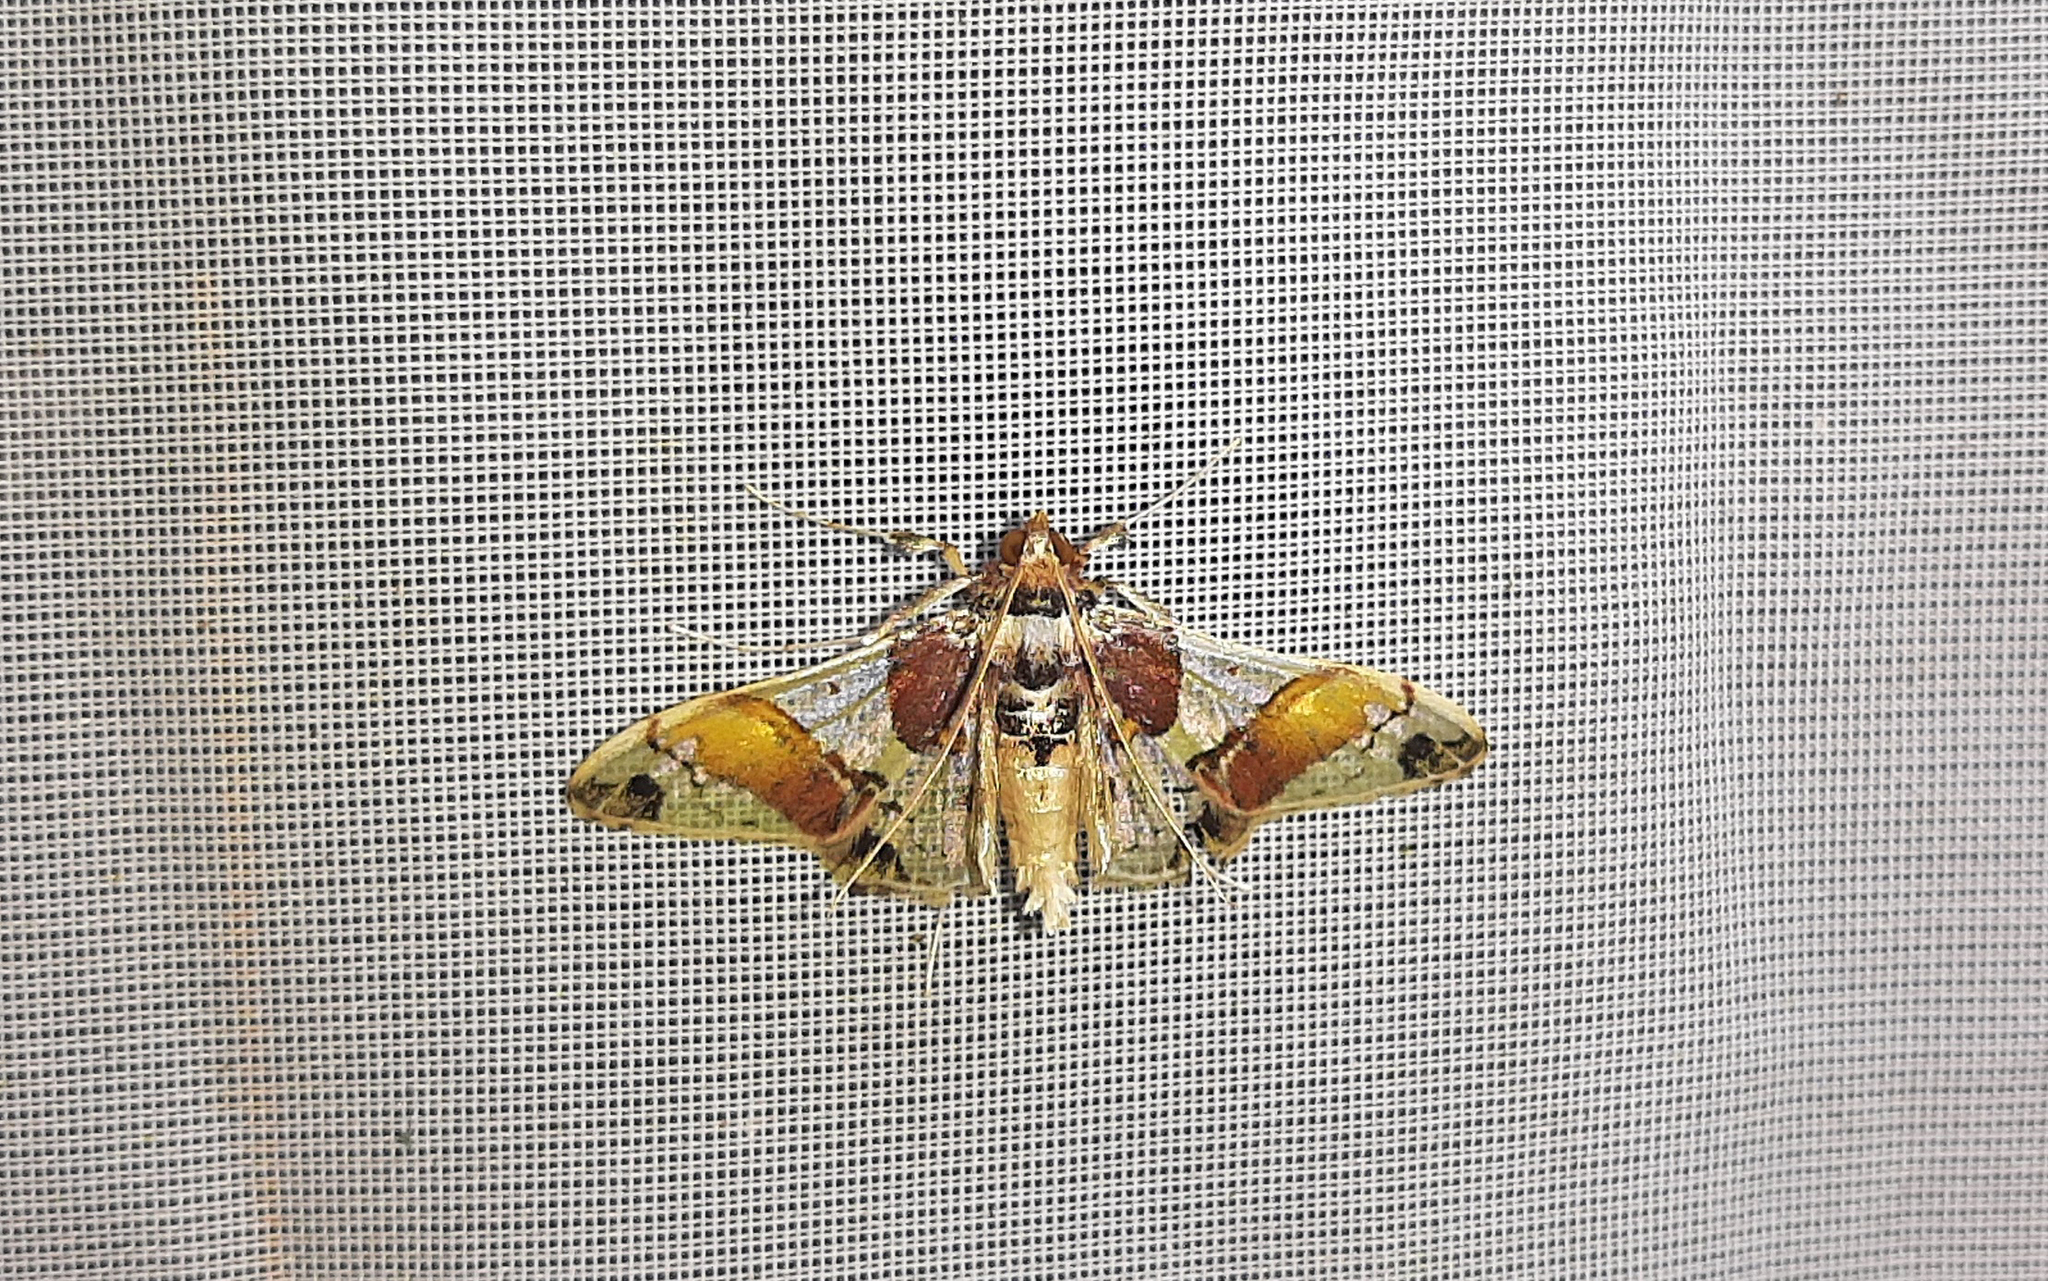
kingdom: Animalia
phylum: Arthropoda
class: Insecta
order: Lepidoptera
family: Crambidae
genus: Syngamilyta
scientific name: Syngamilyta apicolor
